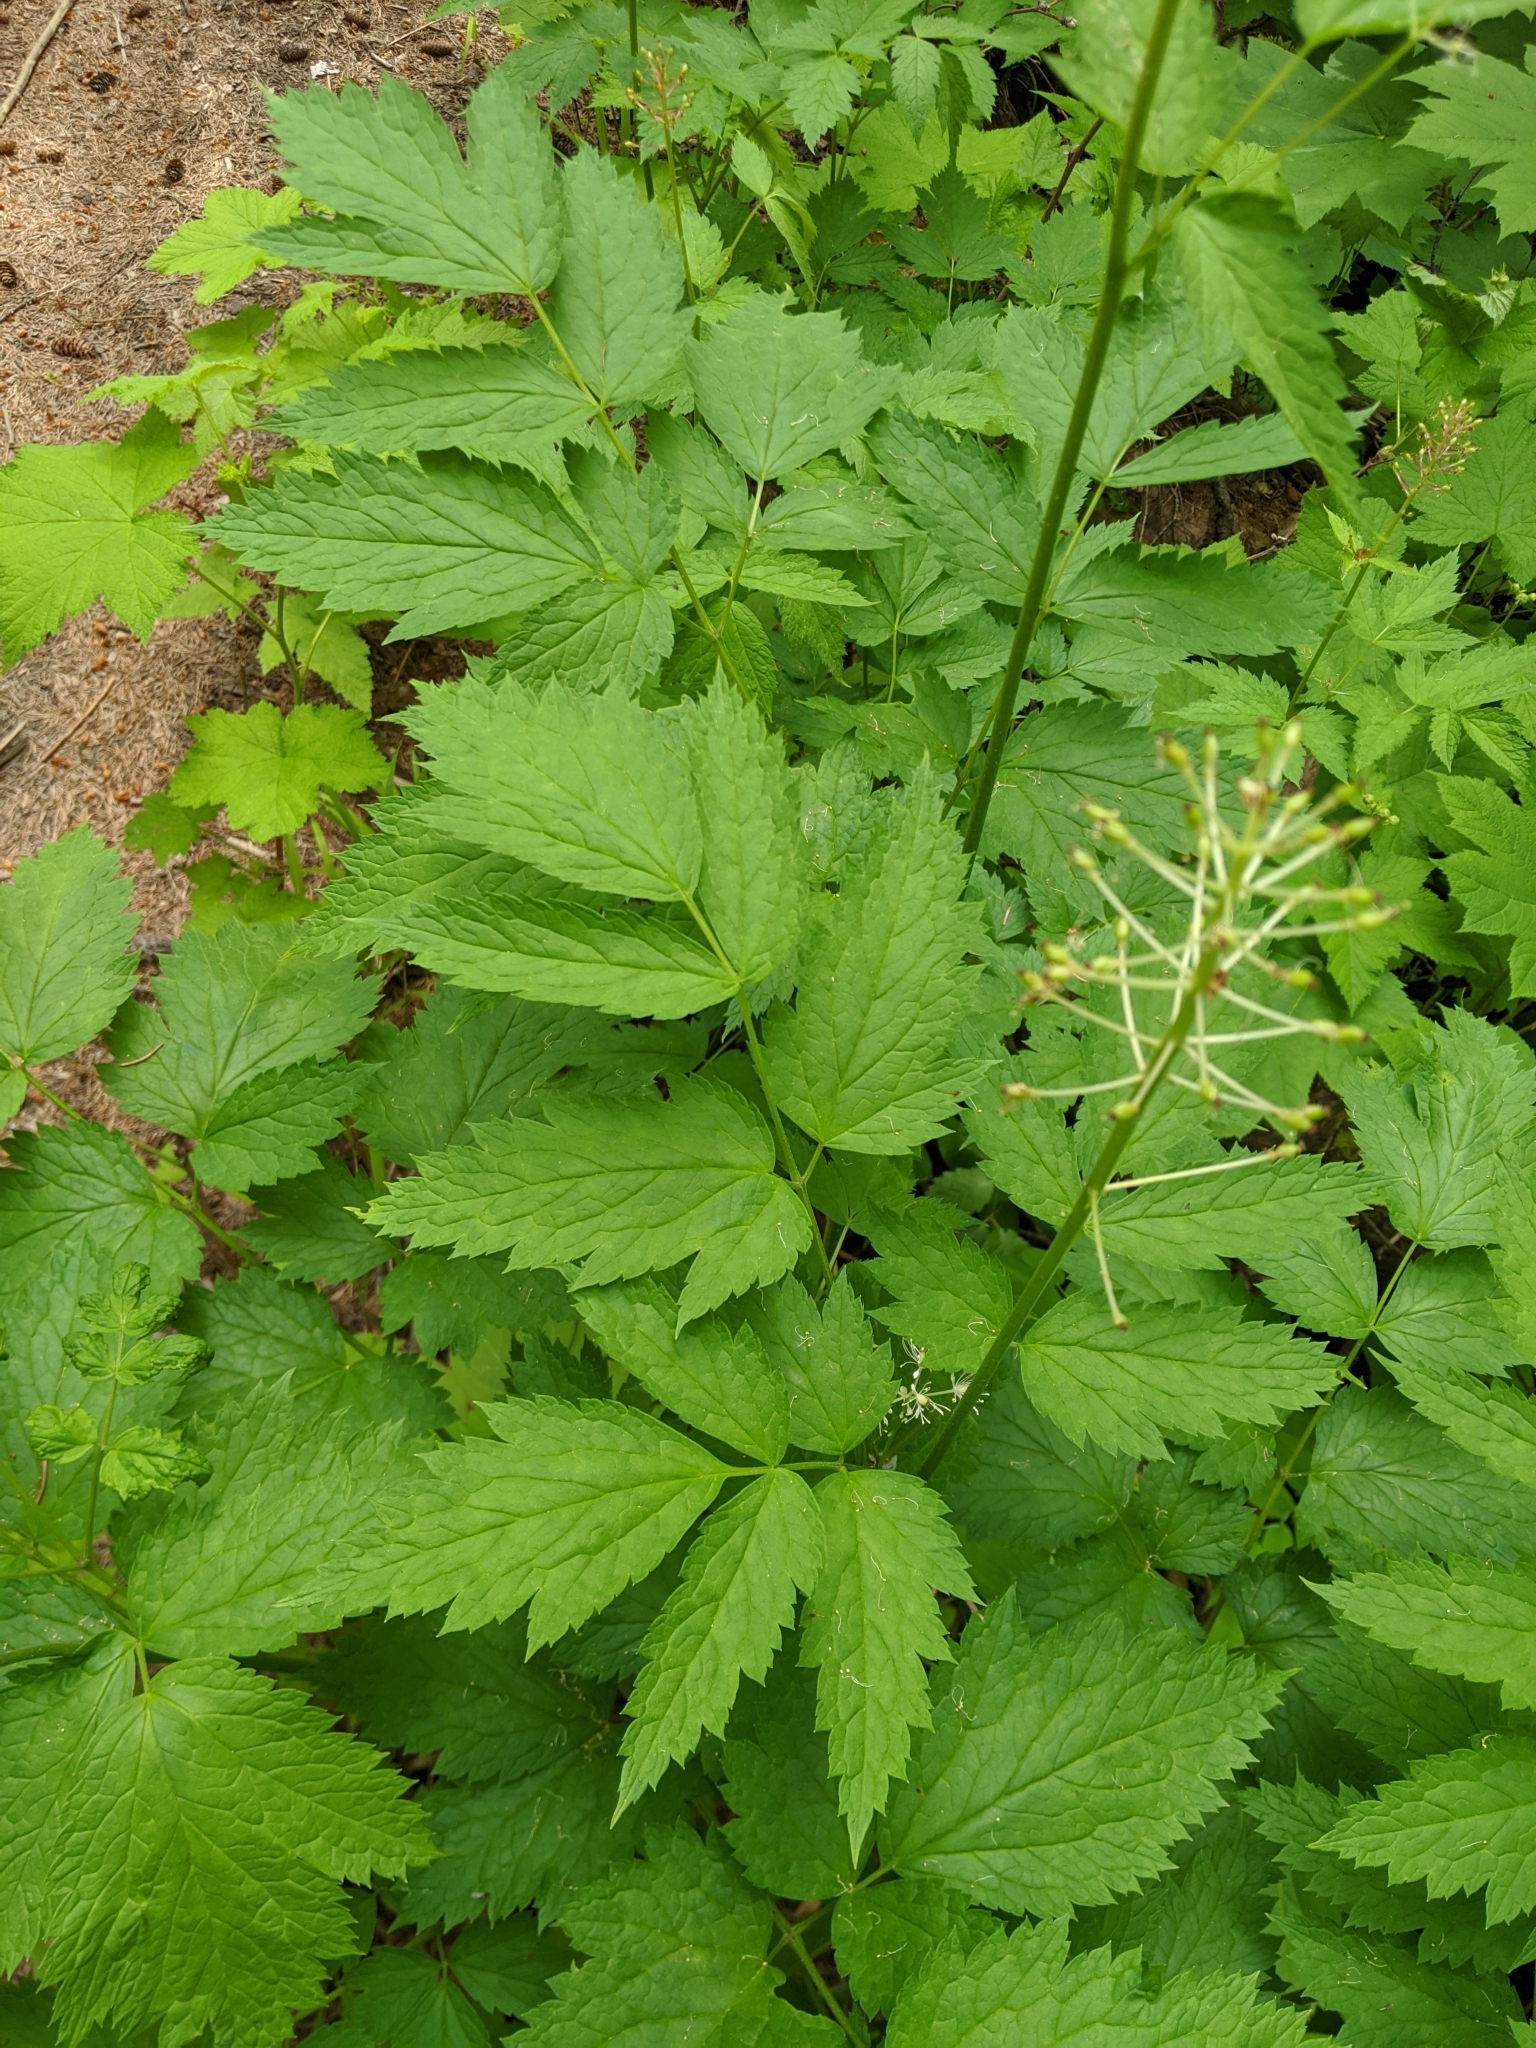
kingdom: Plantae
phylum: Tracheophyta
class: Magnoliopsida
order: Ranunculales
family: Ranunculaceae
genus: Actaea
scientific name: Actaea rubra
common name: Red baneberry
